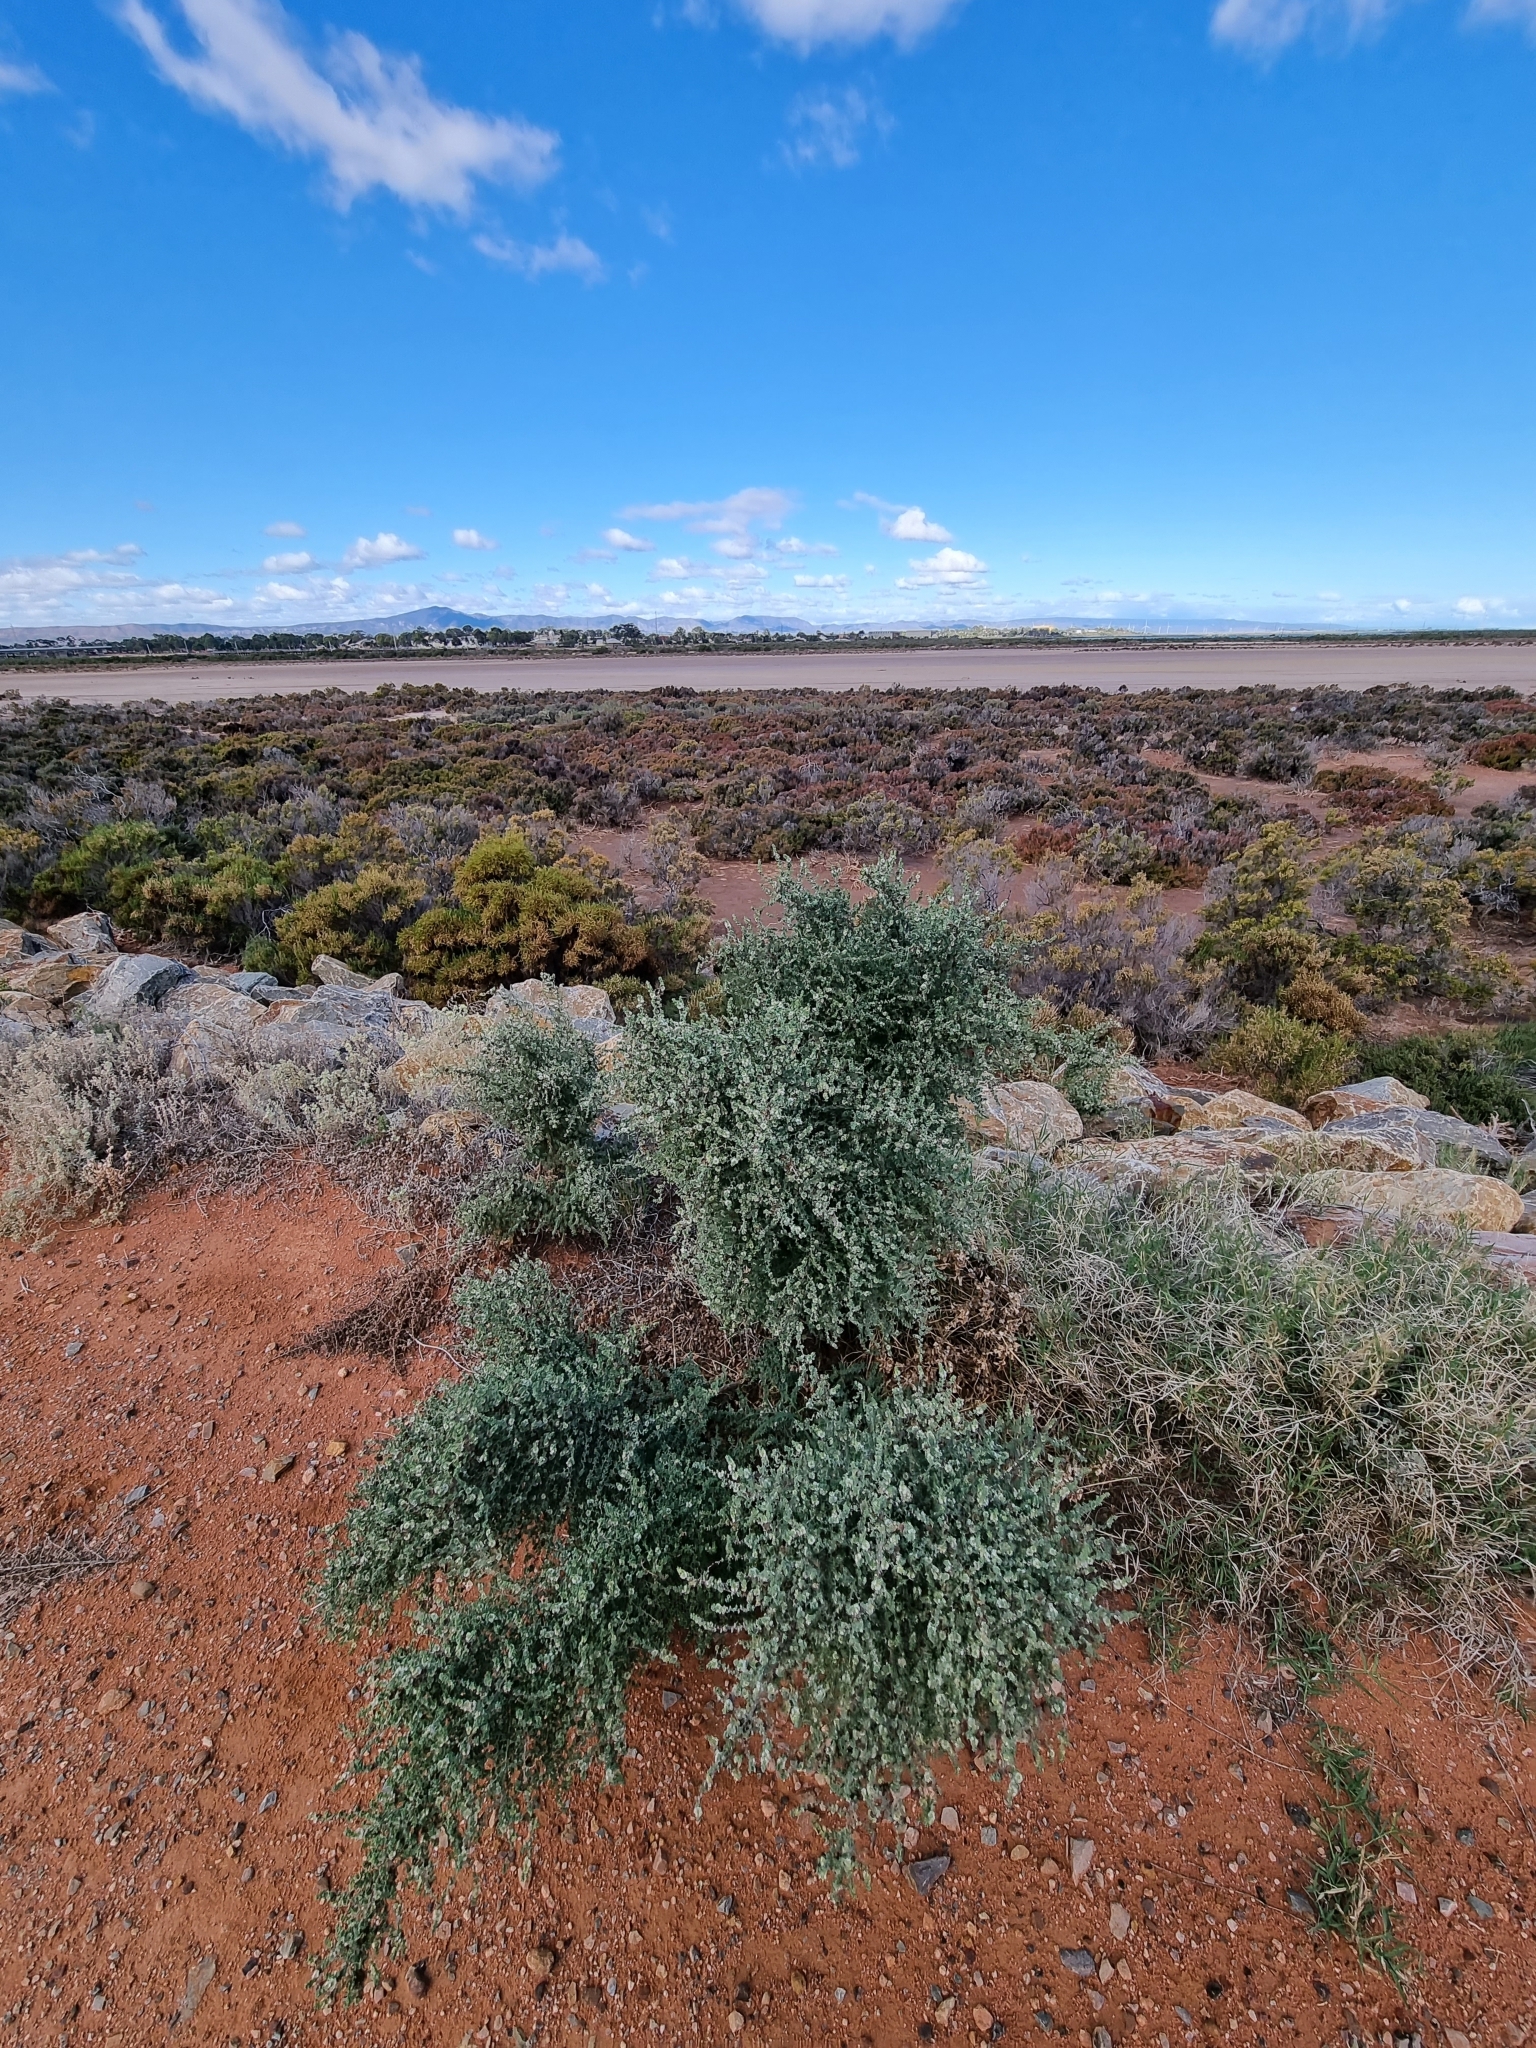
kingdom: Plantae
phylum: Tracheophyta
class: Magnoliopsida
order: Caryophyllales
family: Amaranthaceae
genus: Maireana
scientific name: Maireana brevifolia
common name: Eastern cottonbush
